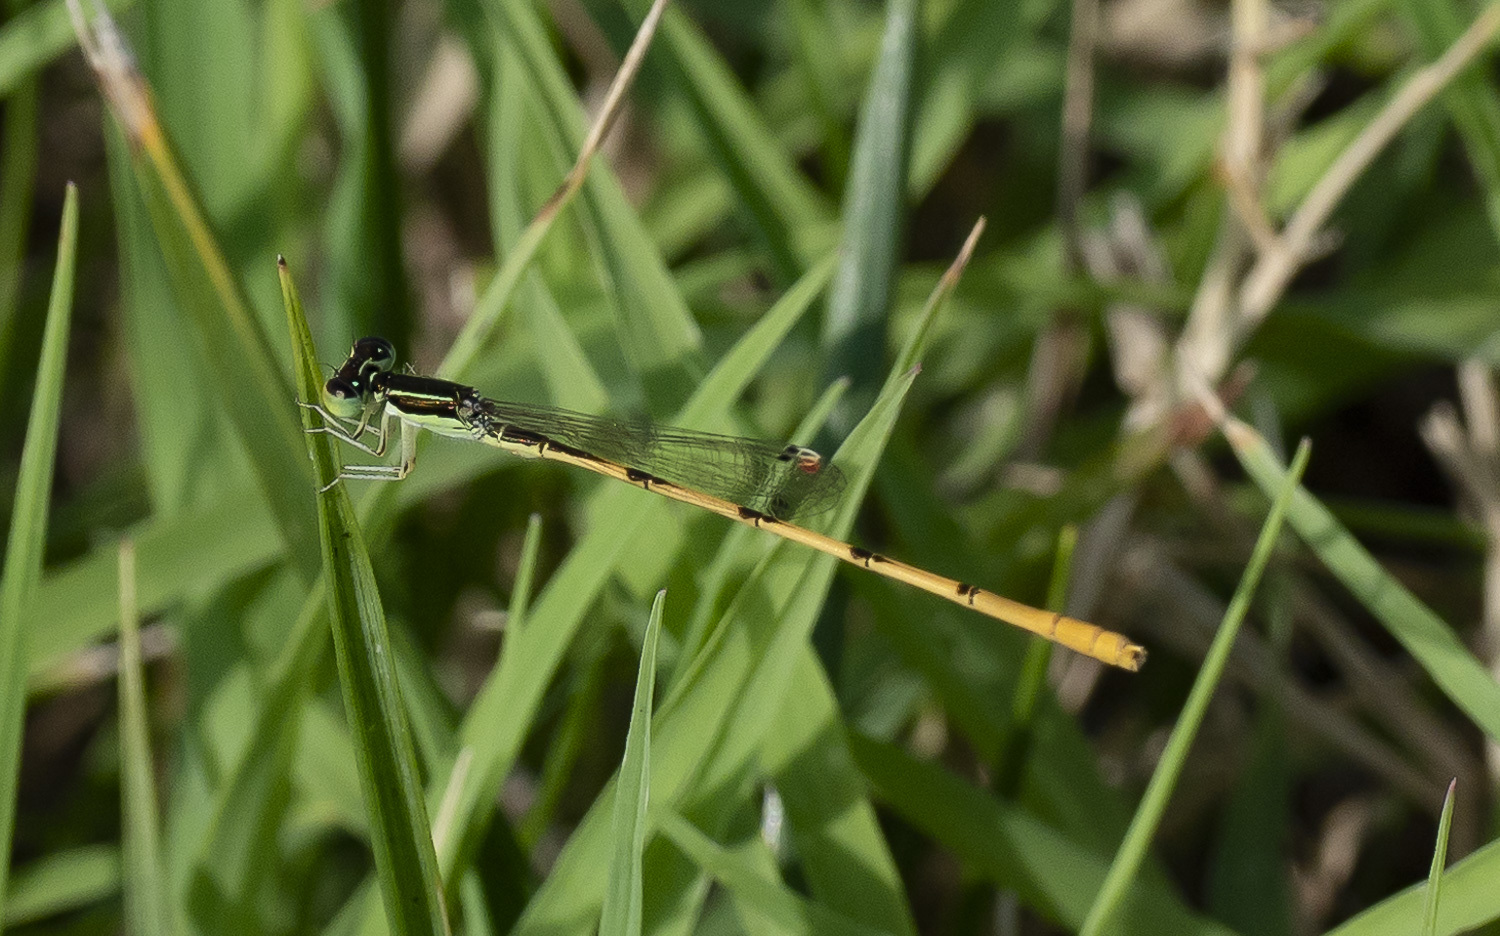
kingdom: Animalia
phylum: Arthropoda
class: Insecta
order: Odonata
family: Coenagrionidae
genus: Ischnura
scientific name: Ischnura hastata
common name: Citrine forktail
